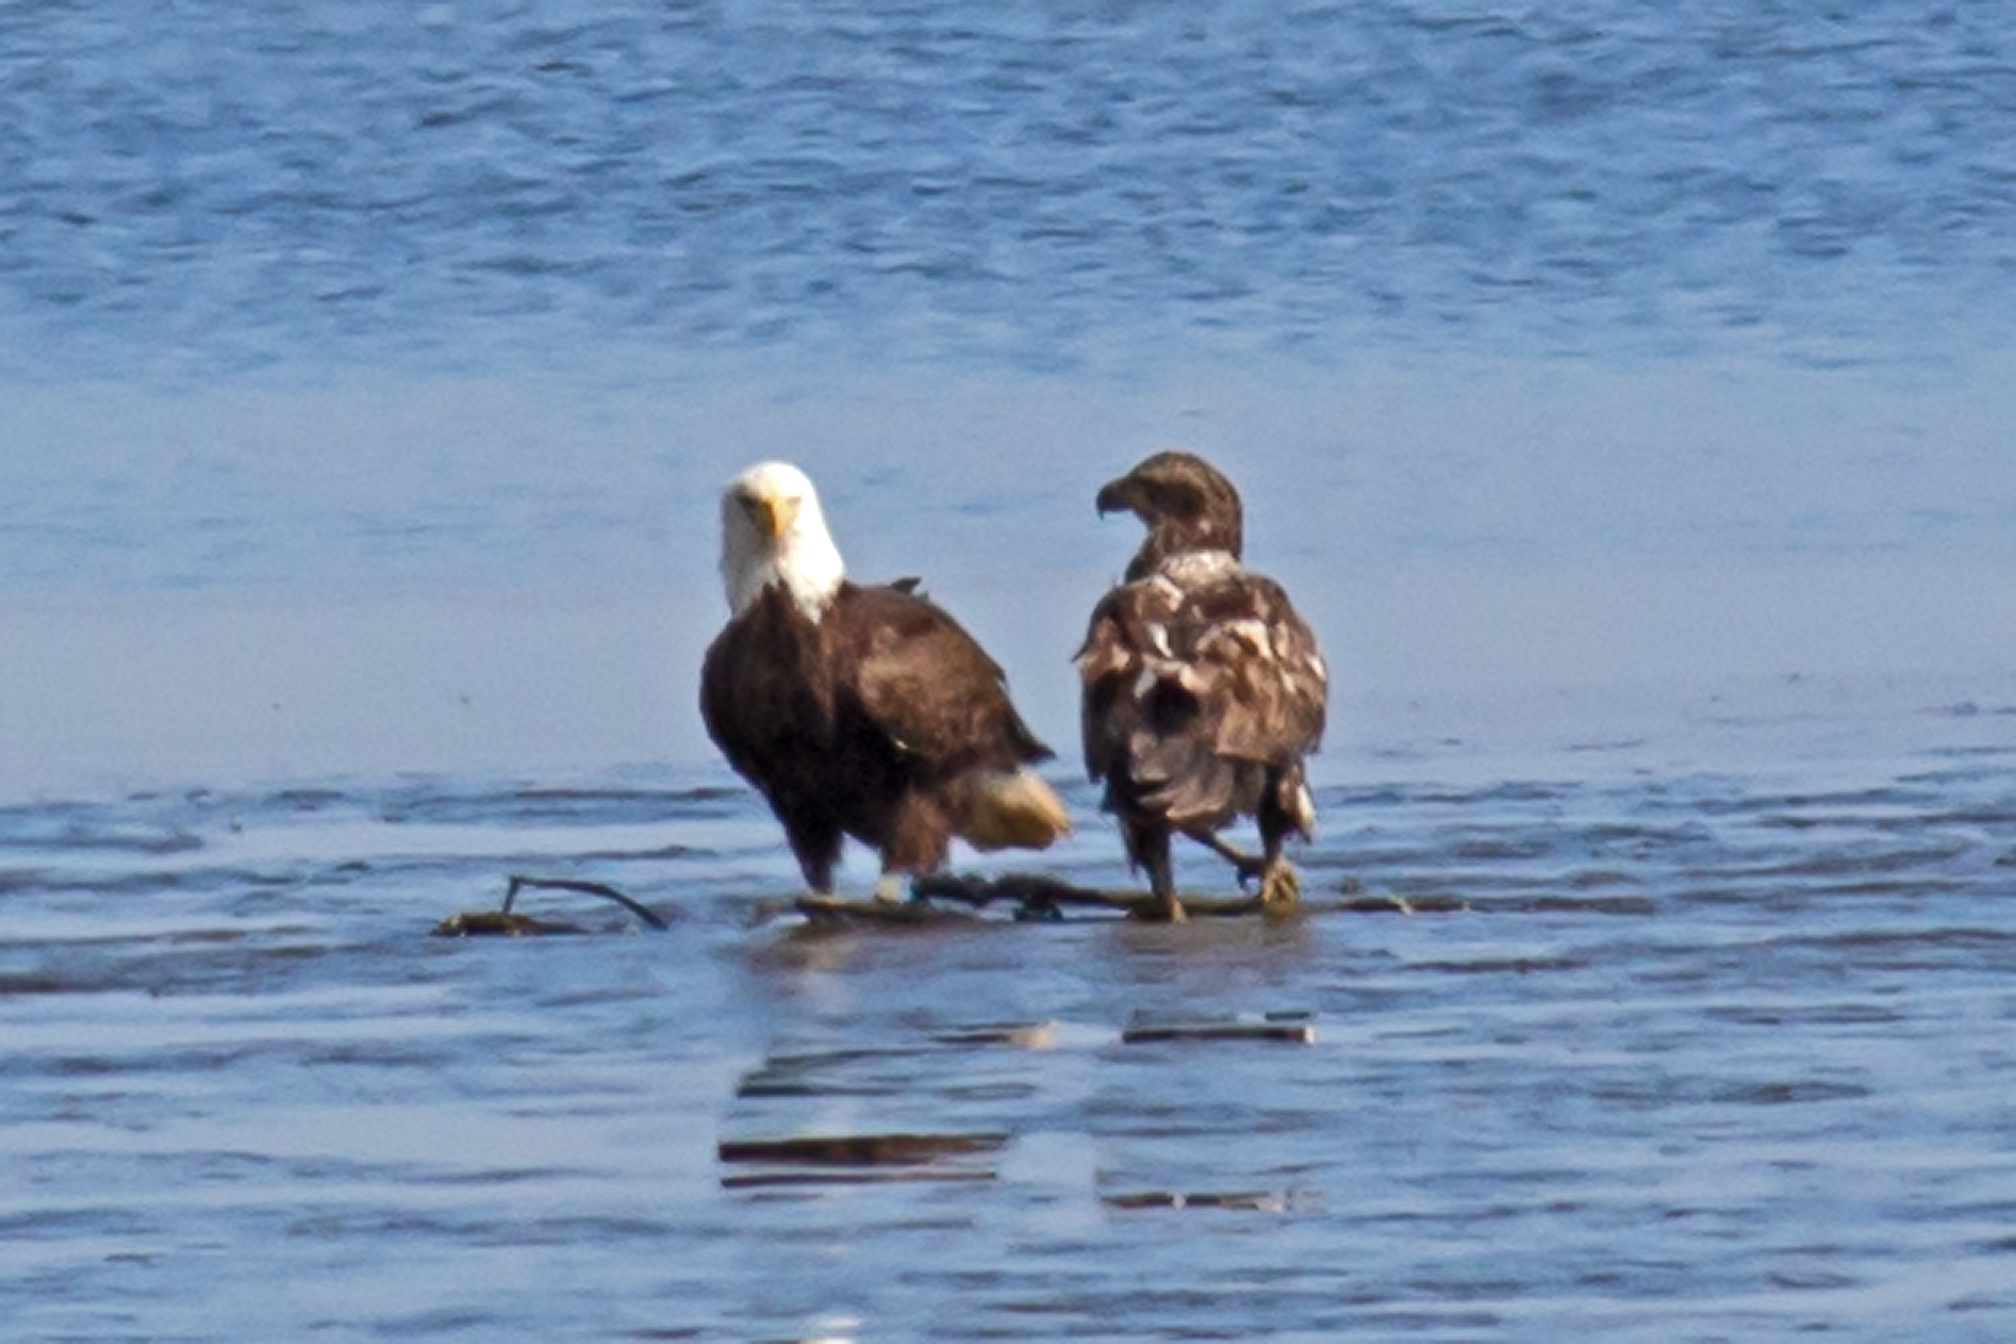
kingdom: Animalia
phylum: Chordata
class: Aves
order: Accipitriformes
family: Accipitridae
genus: Haliaeetus
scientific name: Haliaeetus leucocephalus
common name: Bald eagle
